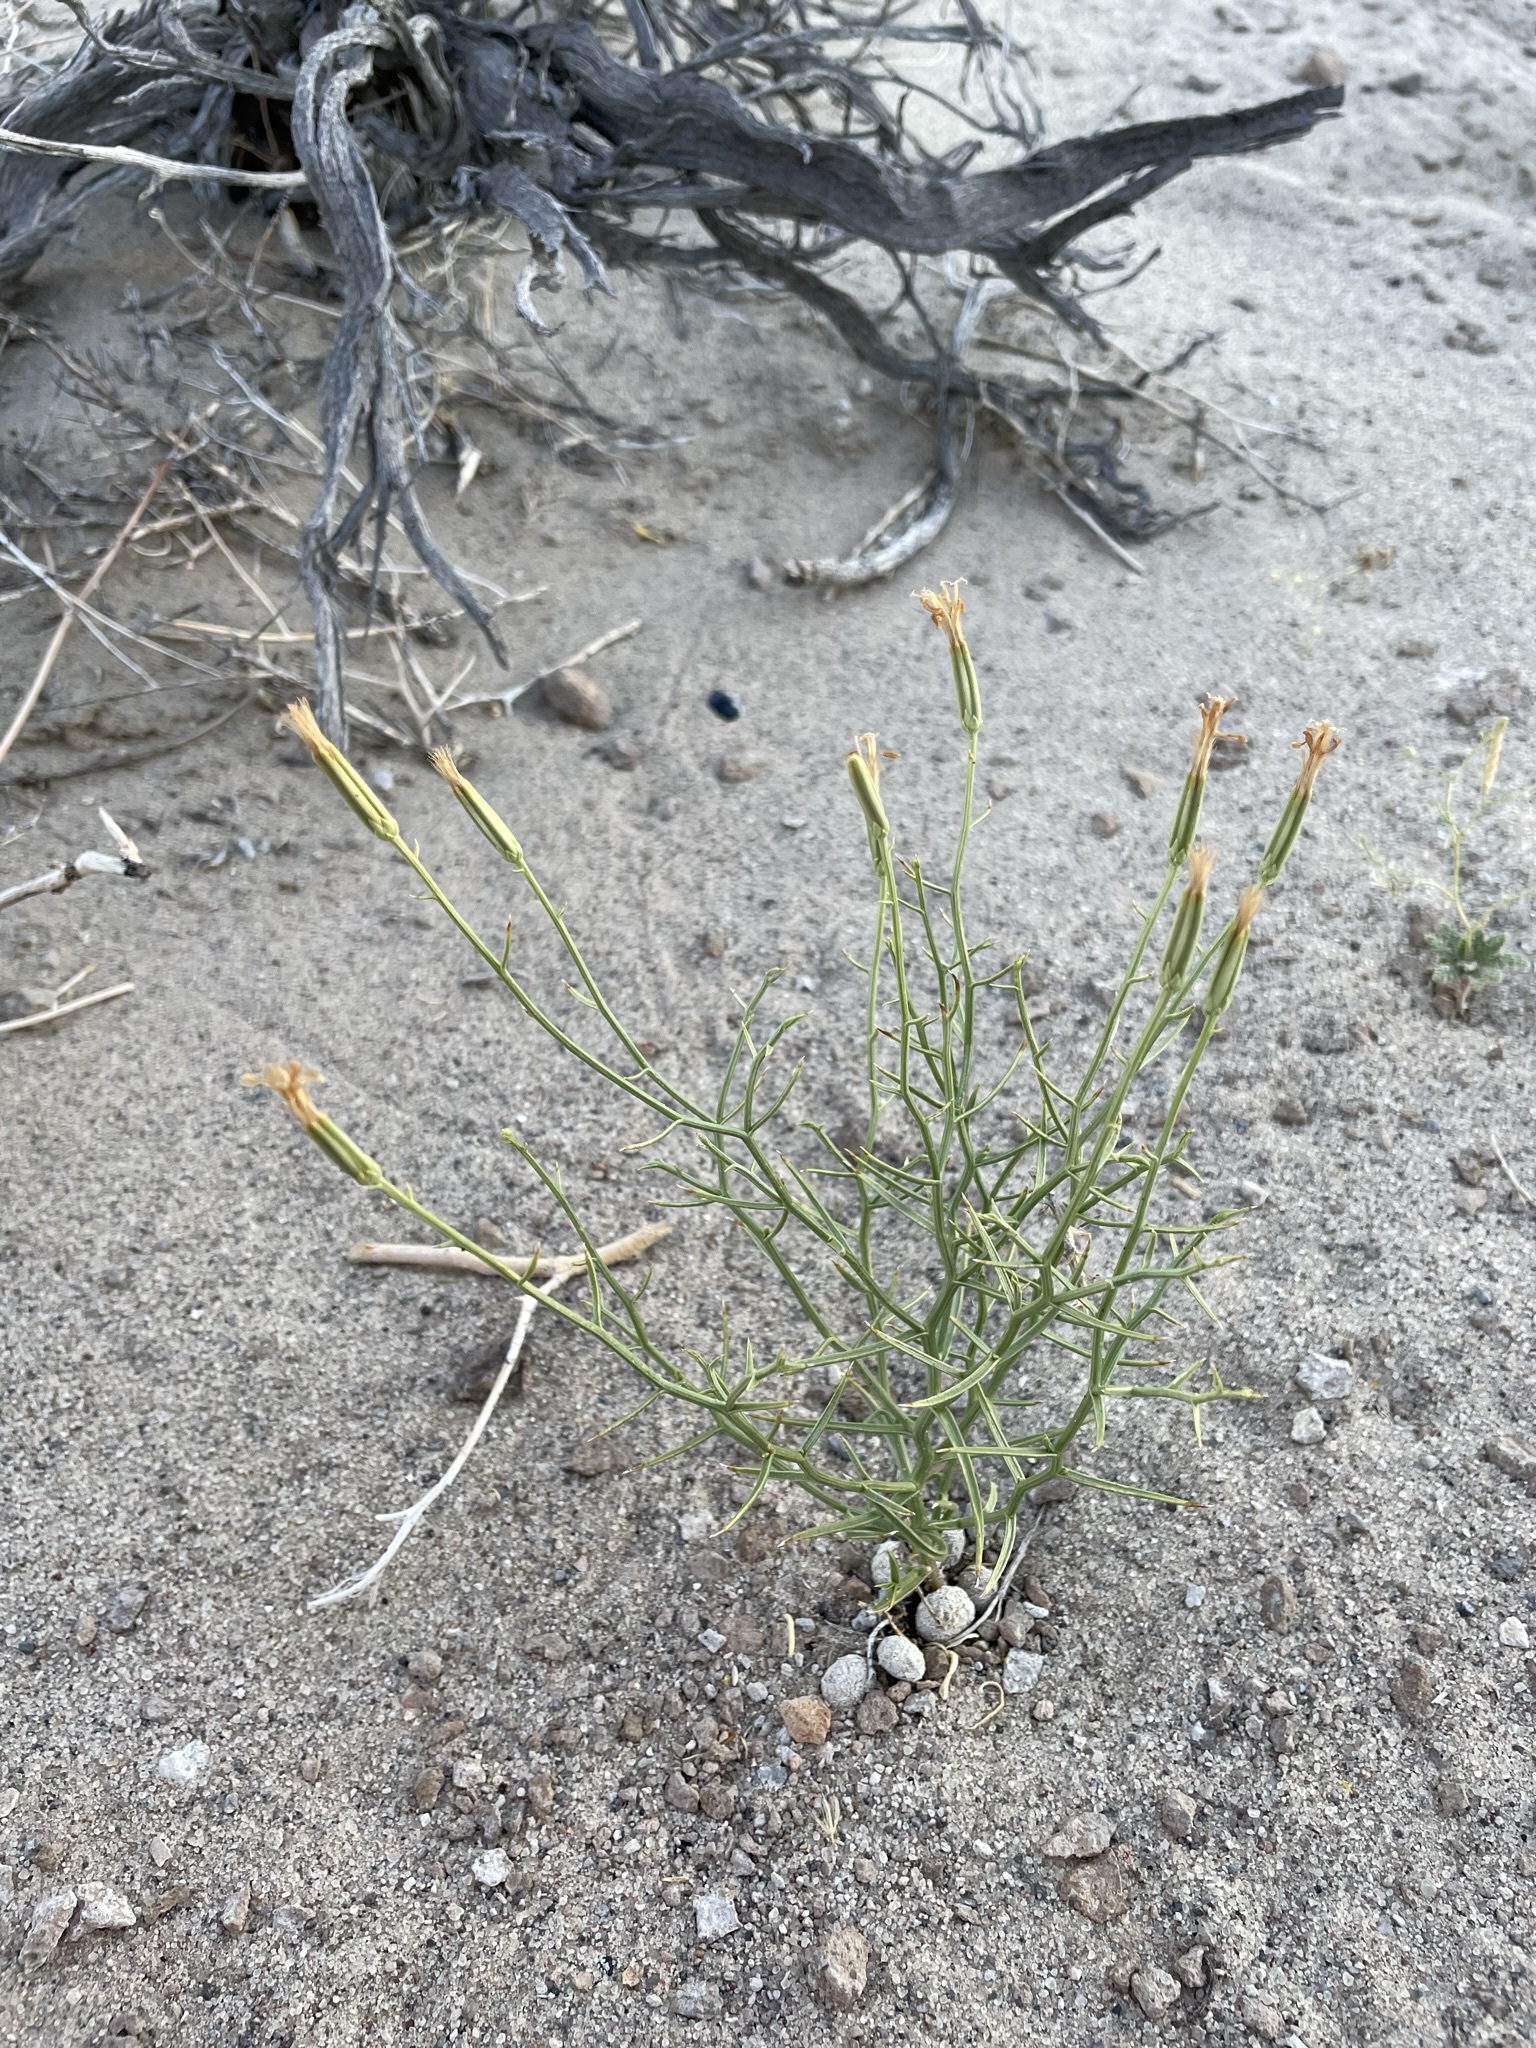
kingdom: Plantae
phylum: Tracheophyta
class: Magnoliopsida
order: Asterales
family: Asteraceae
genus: Chaetadelpha
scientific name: Chaetadelpha wheeleri
